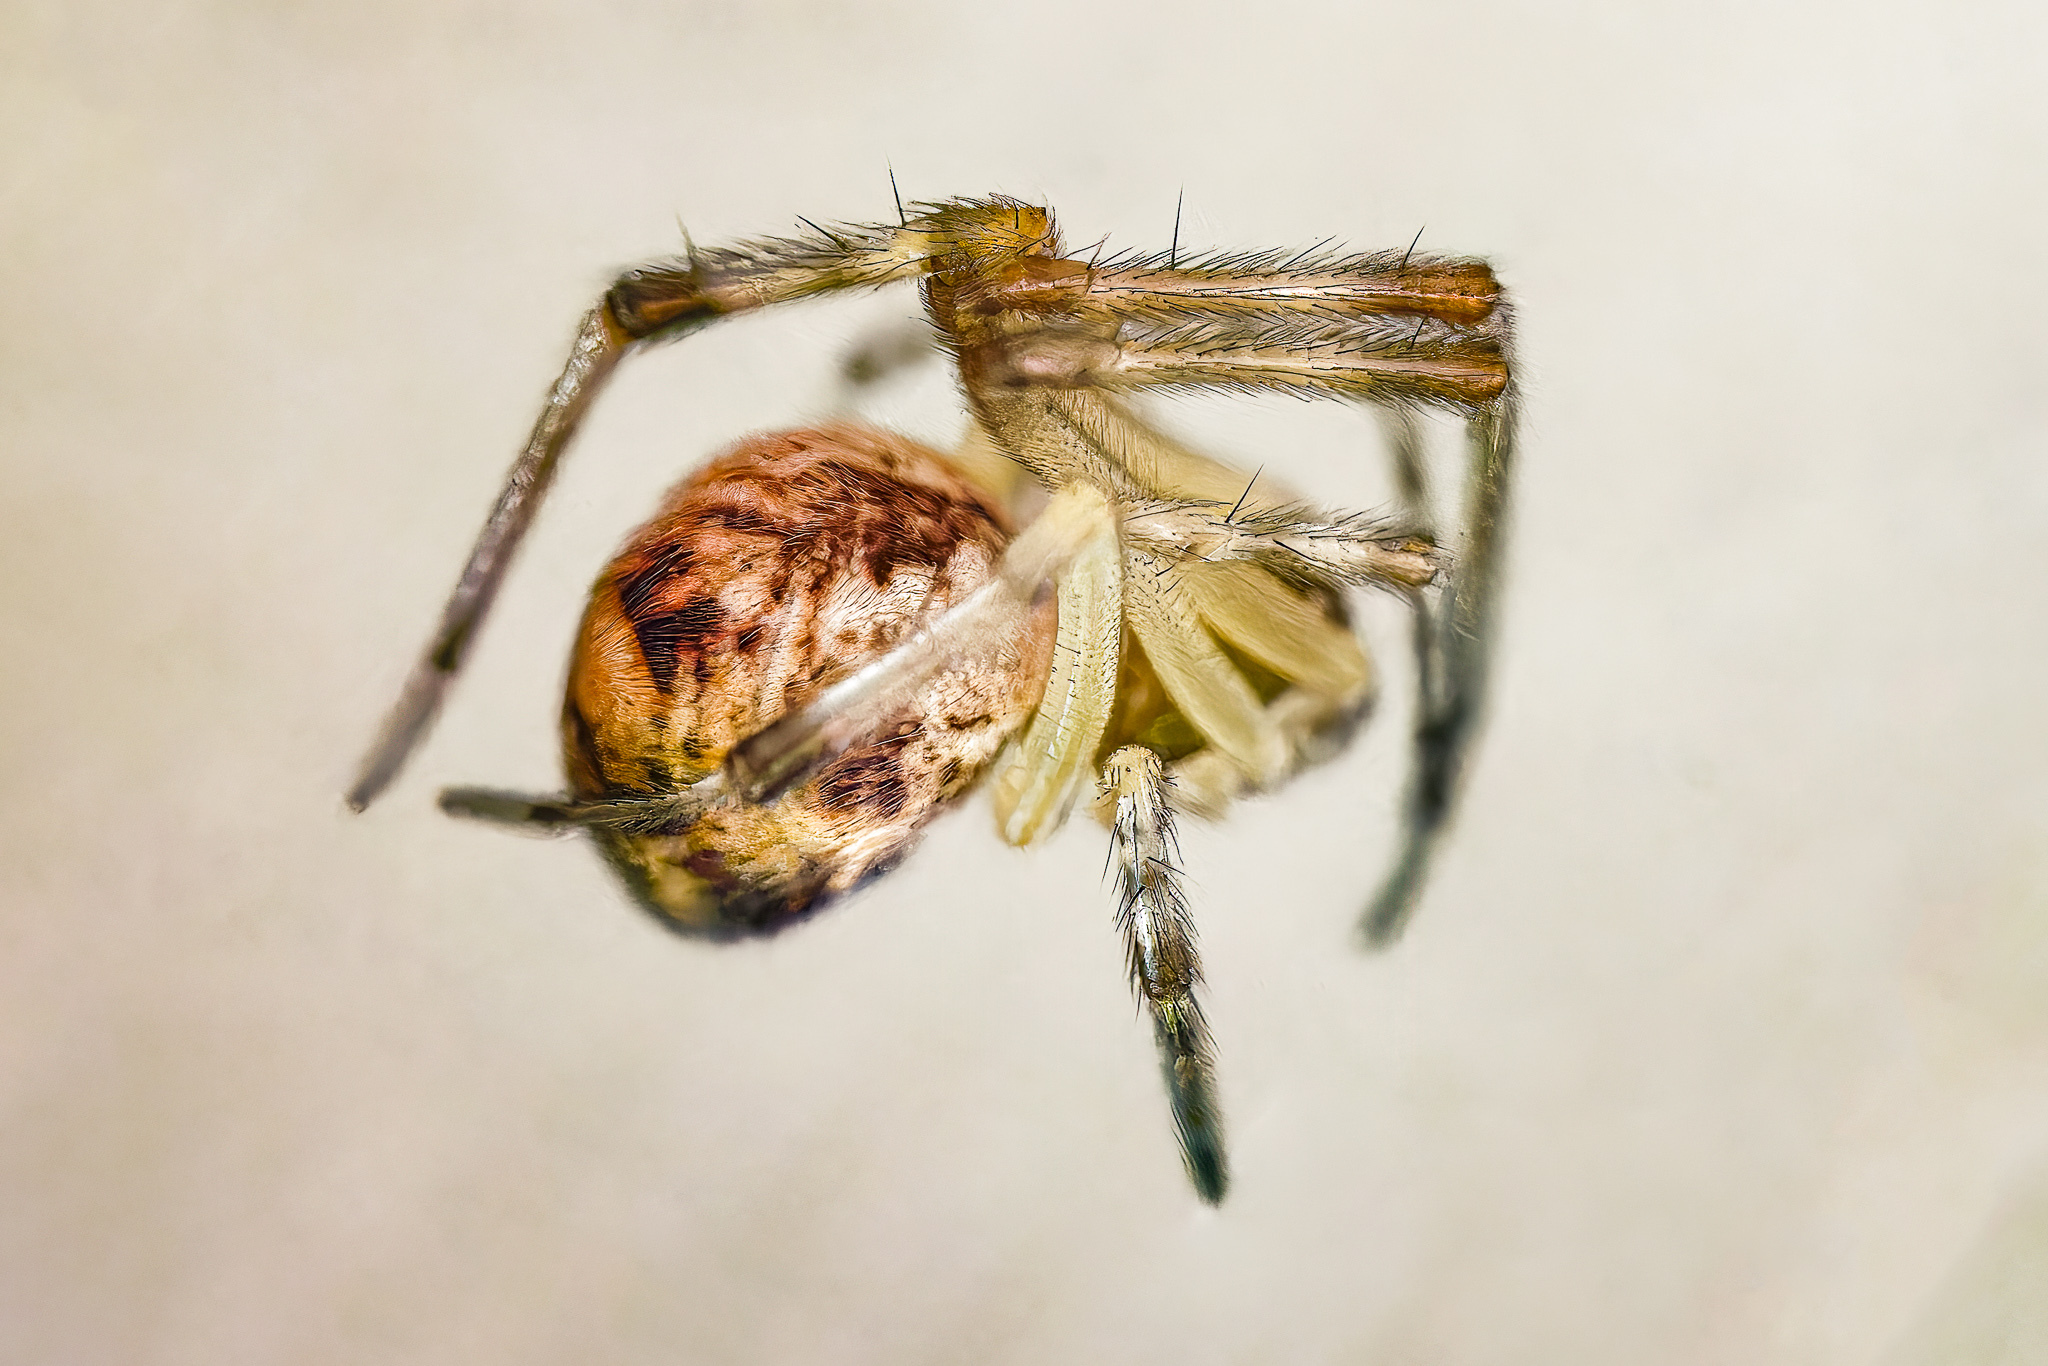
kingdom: Animalia
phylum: Arthropoda
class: Arachnida
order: Araneae
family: Theridiidae
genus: Parasteatoda
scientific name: Parasteatoda tepidariorum
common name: Common house spider
